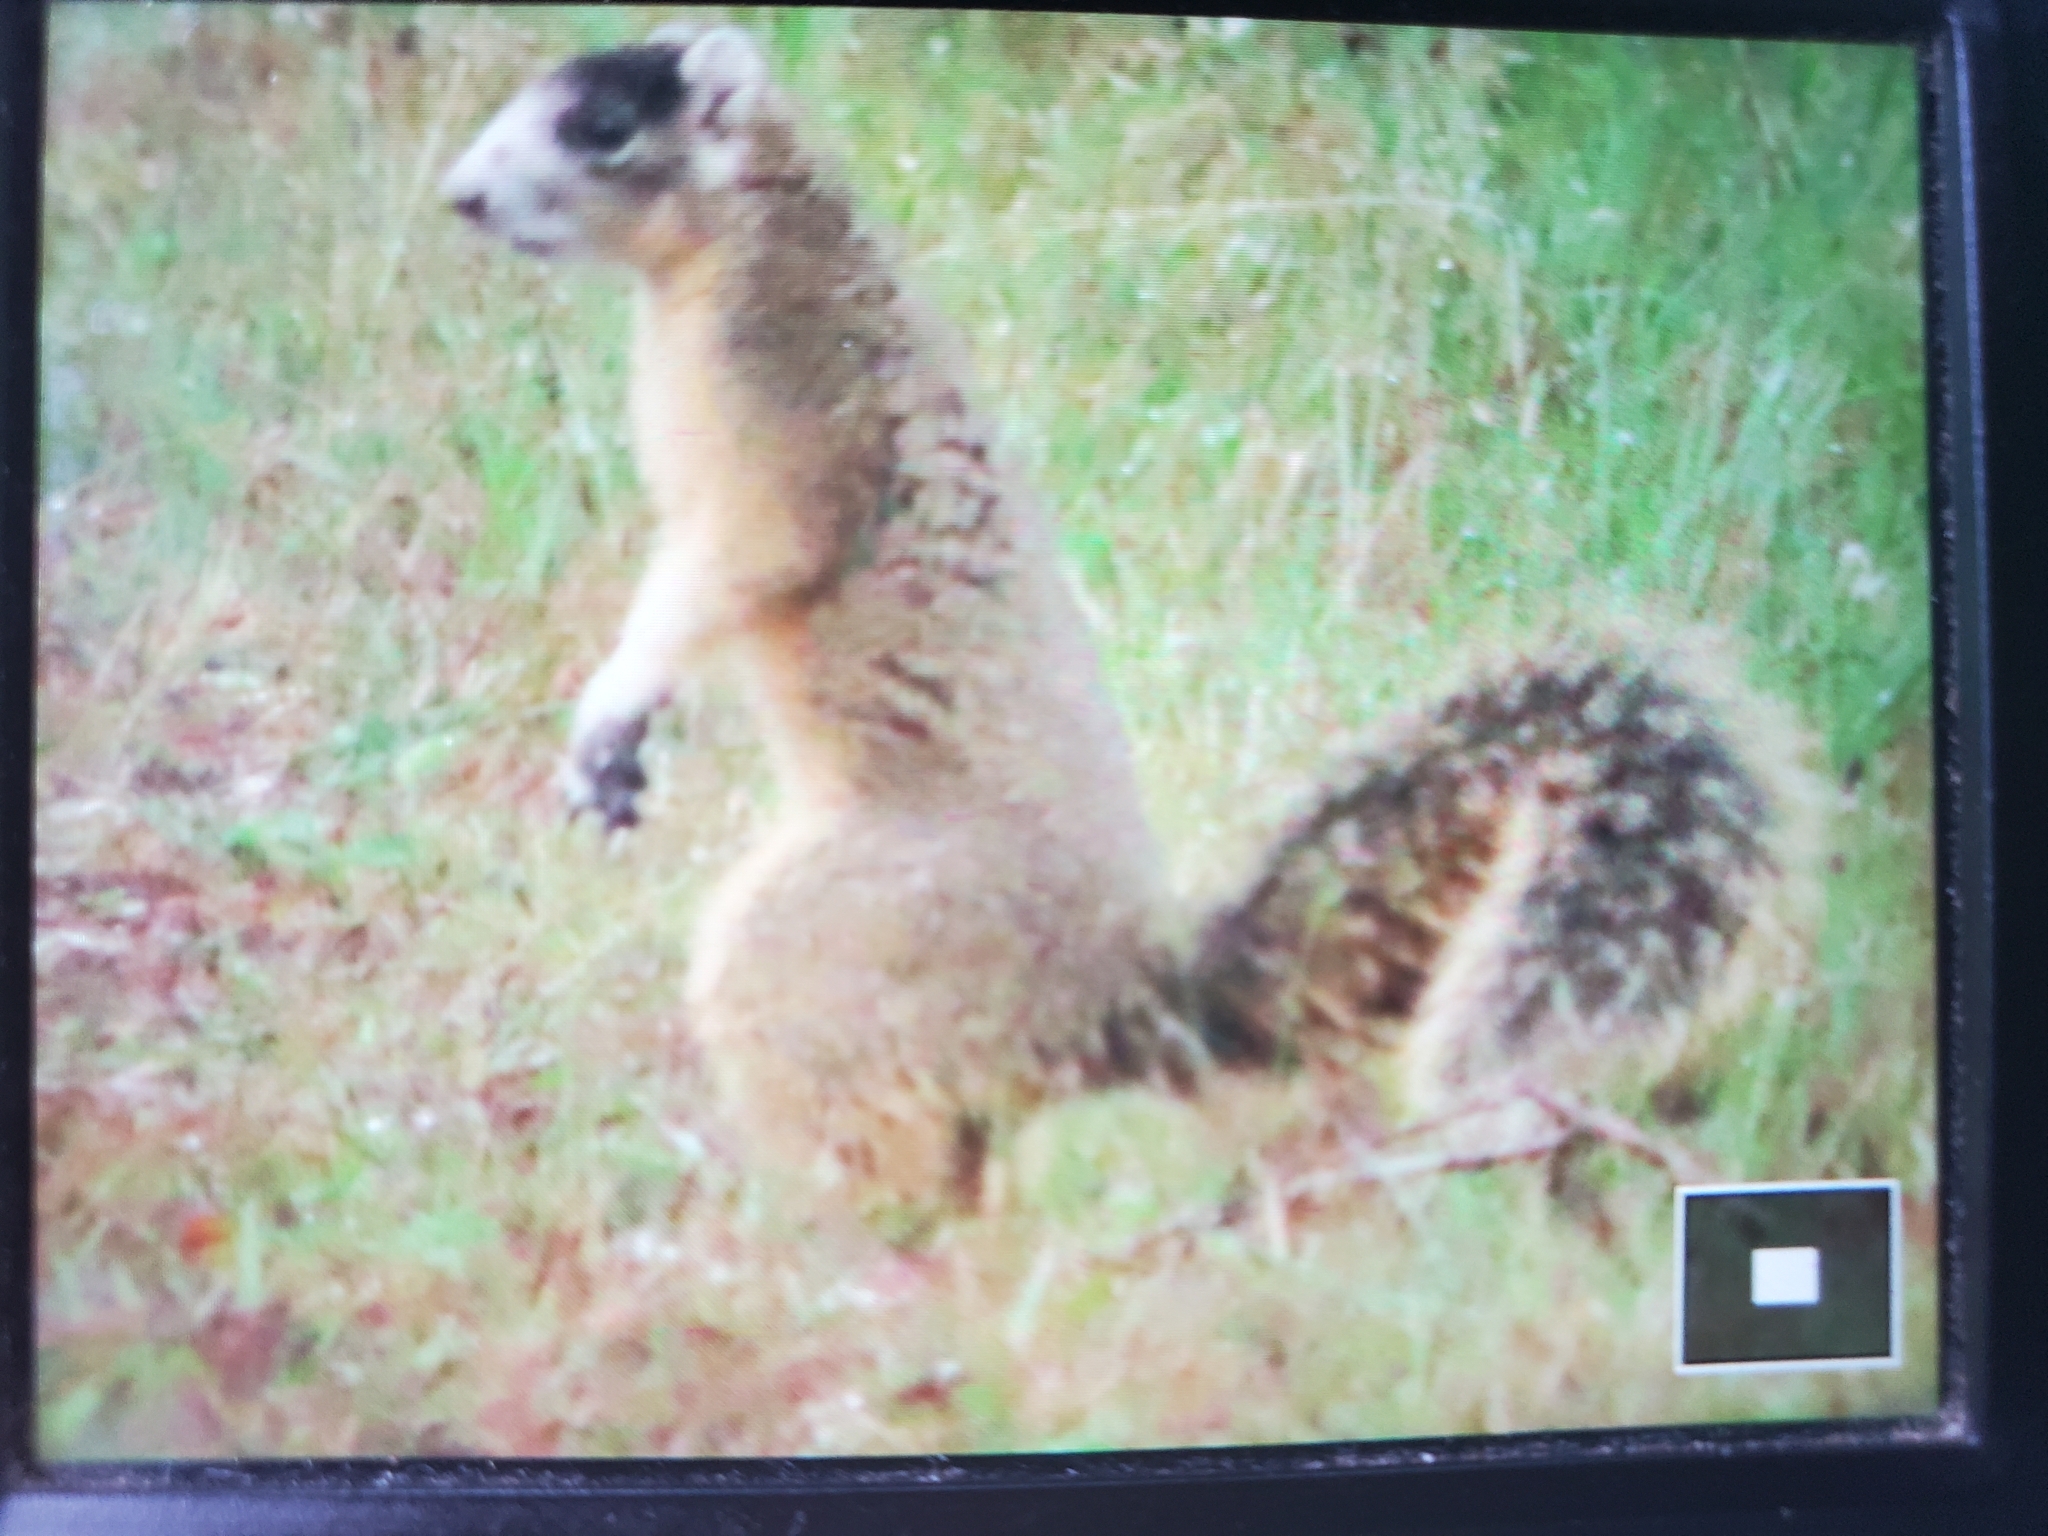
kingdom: Animalia
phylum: Chordata
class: Mammalia
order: Rodentia
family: Sciuridae
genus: Sciurus
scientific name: Sciurus niger
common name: Fox squirrel
